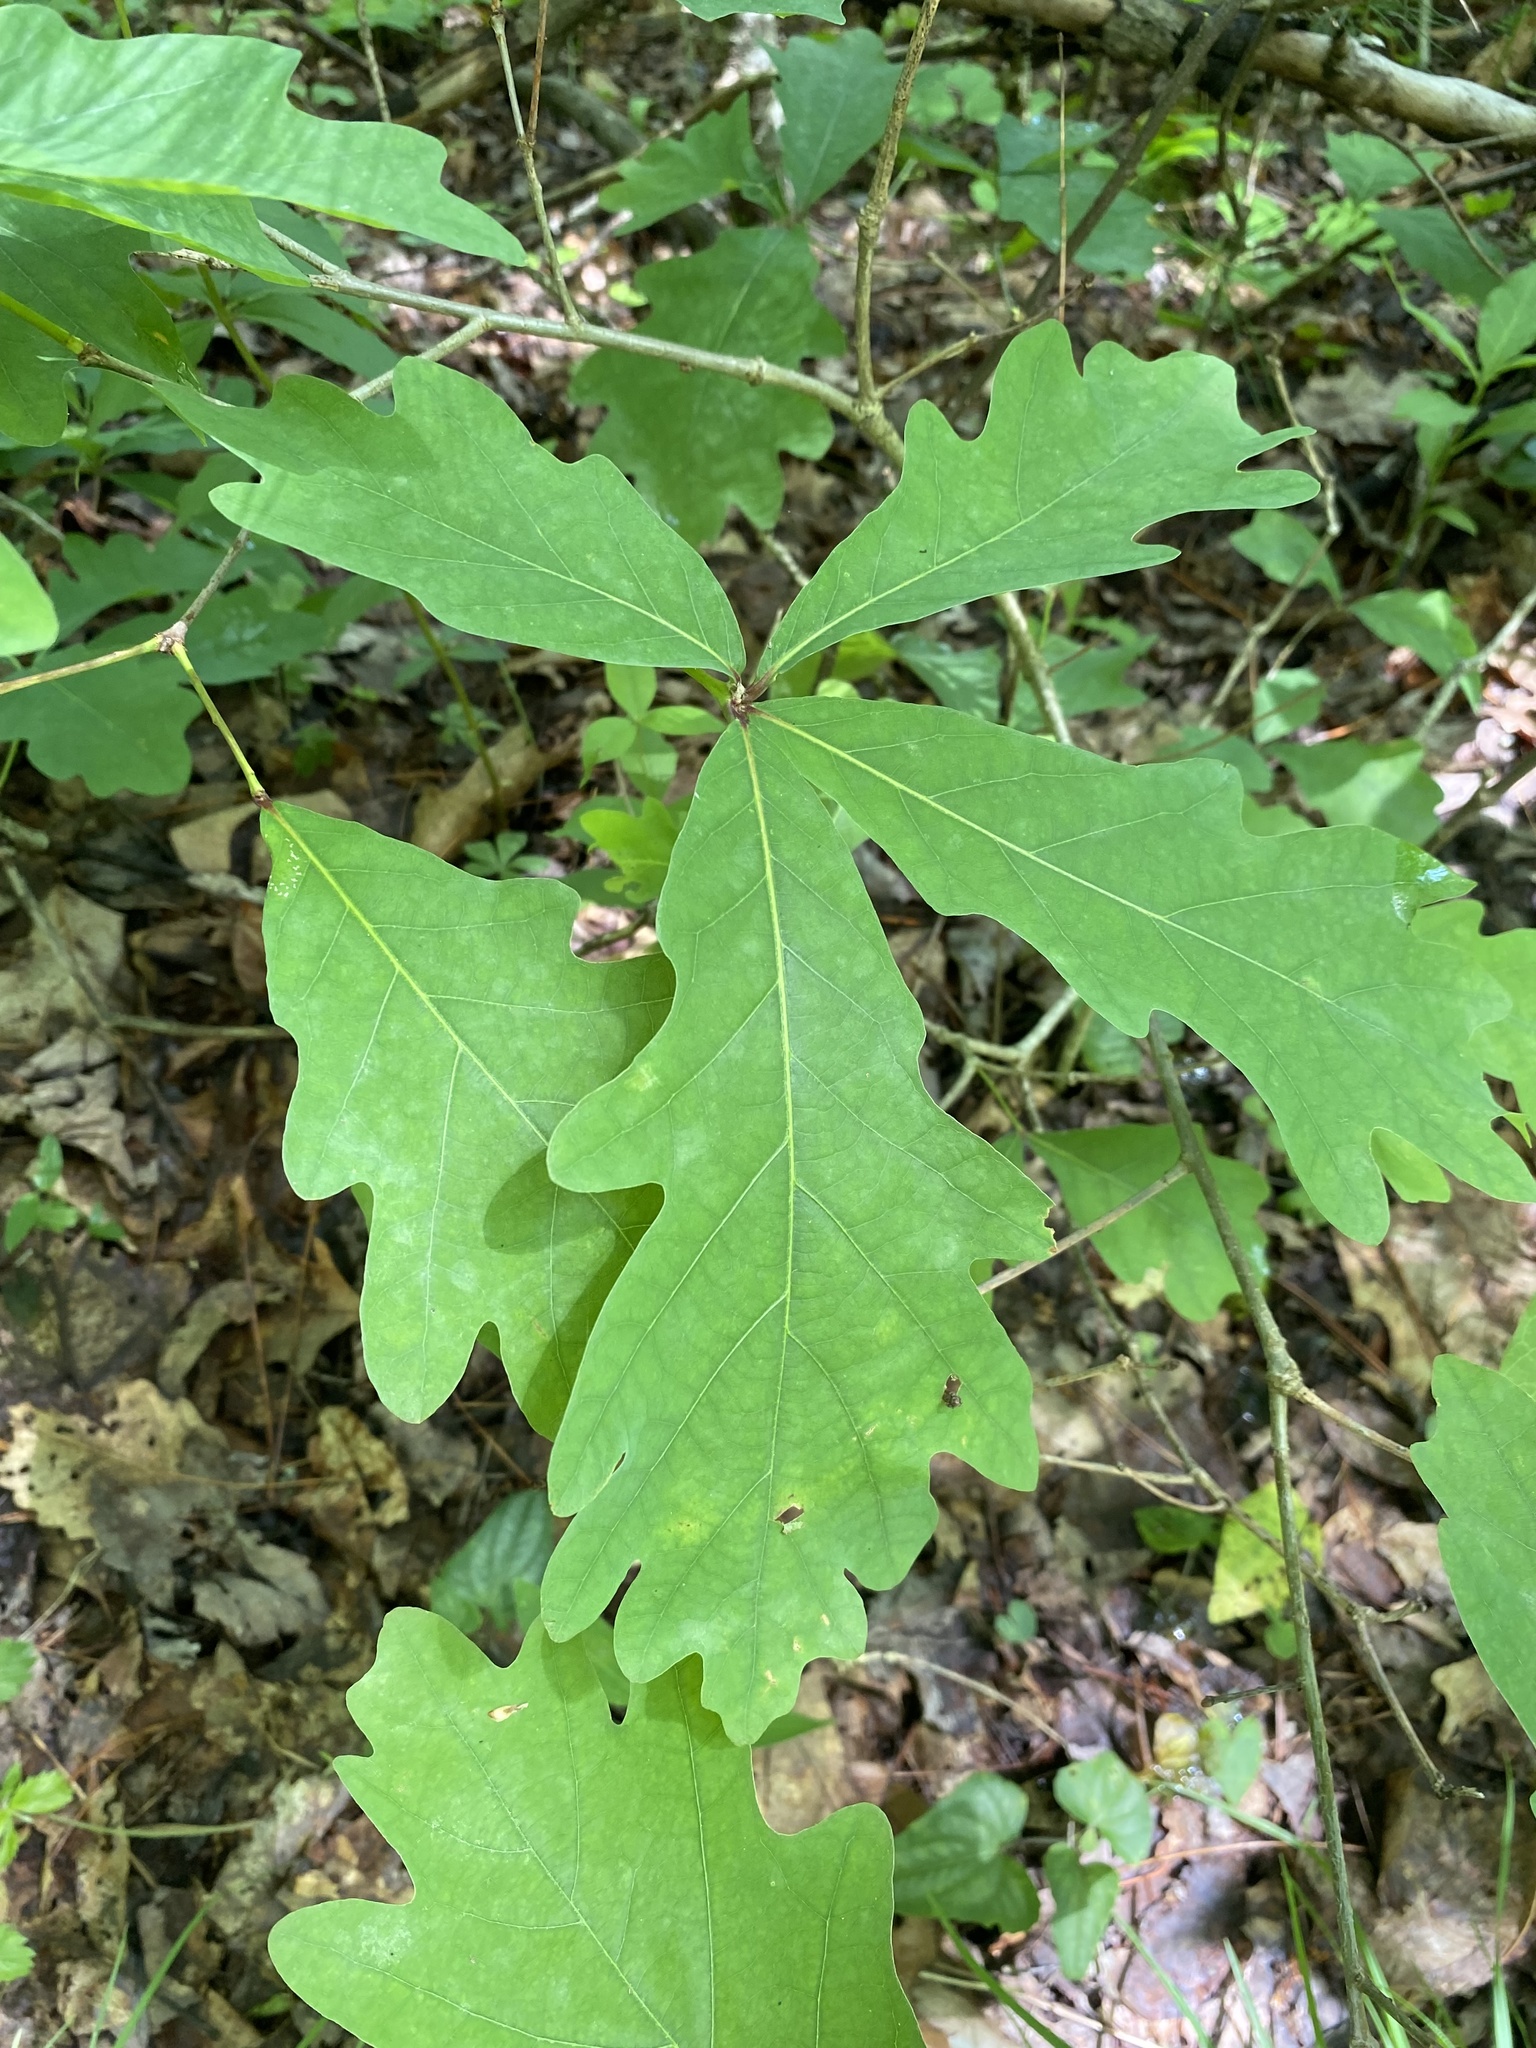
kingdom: Plantae
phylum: Tracheophyta
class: Magnoliopsida
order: Fagales
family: Fagaceae
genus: Quercus
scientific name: Quercus alba
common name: White oak
